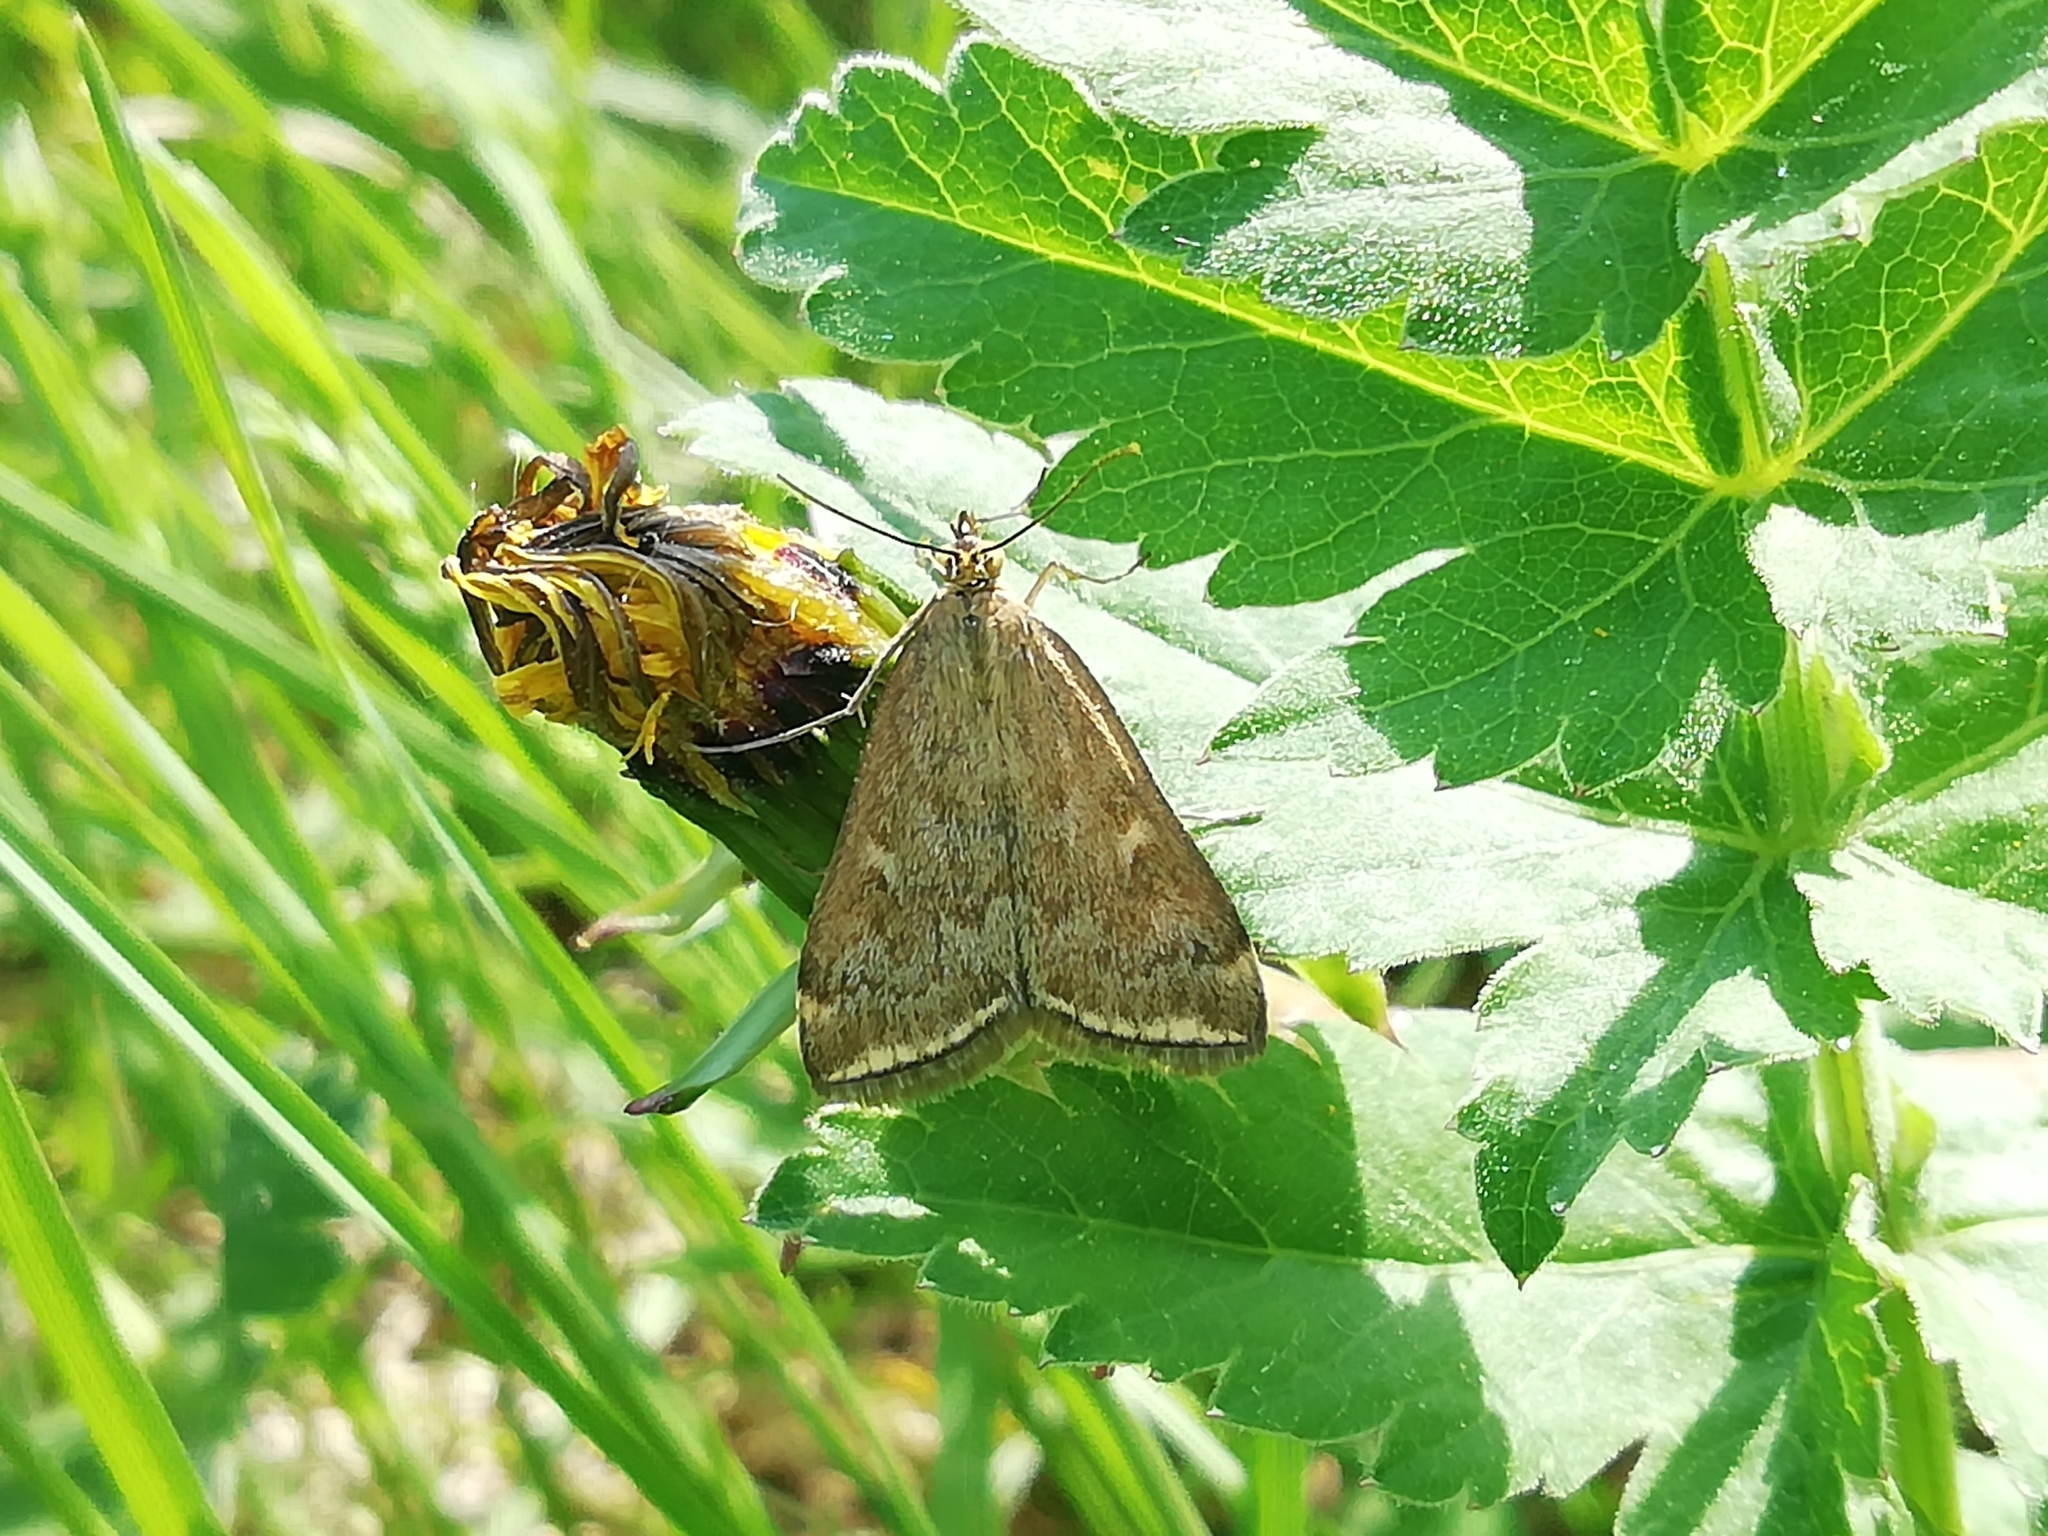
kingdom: Animalia
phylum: Arthropoda
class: Insecta
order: Lepidoptera
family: Crambidae
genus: Loxostege
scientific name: Loxostege sticticalis
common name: Crambid moth
